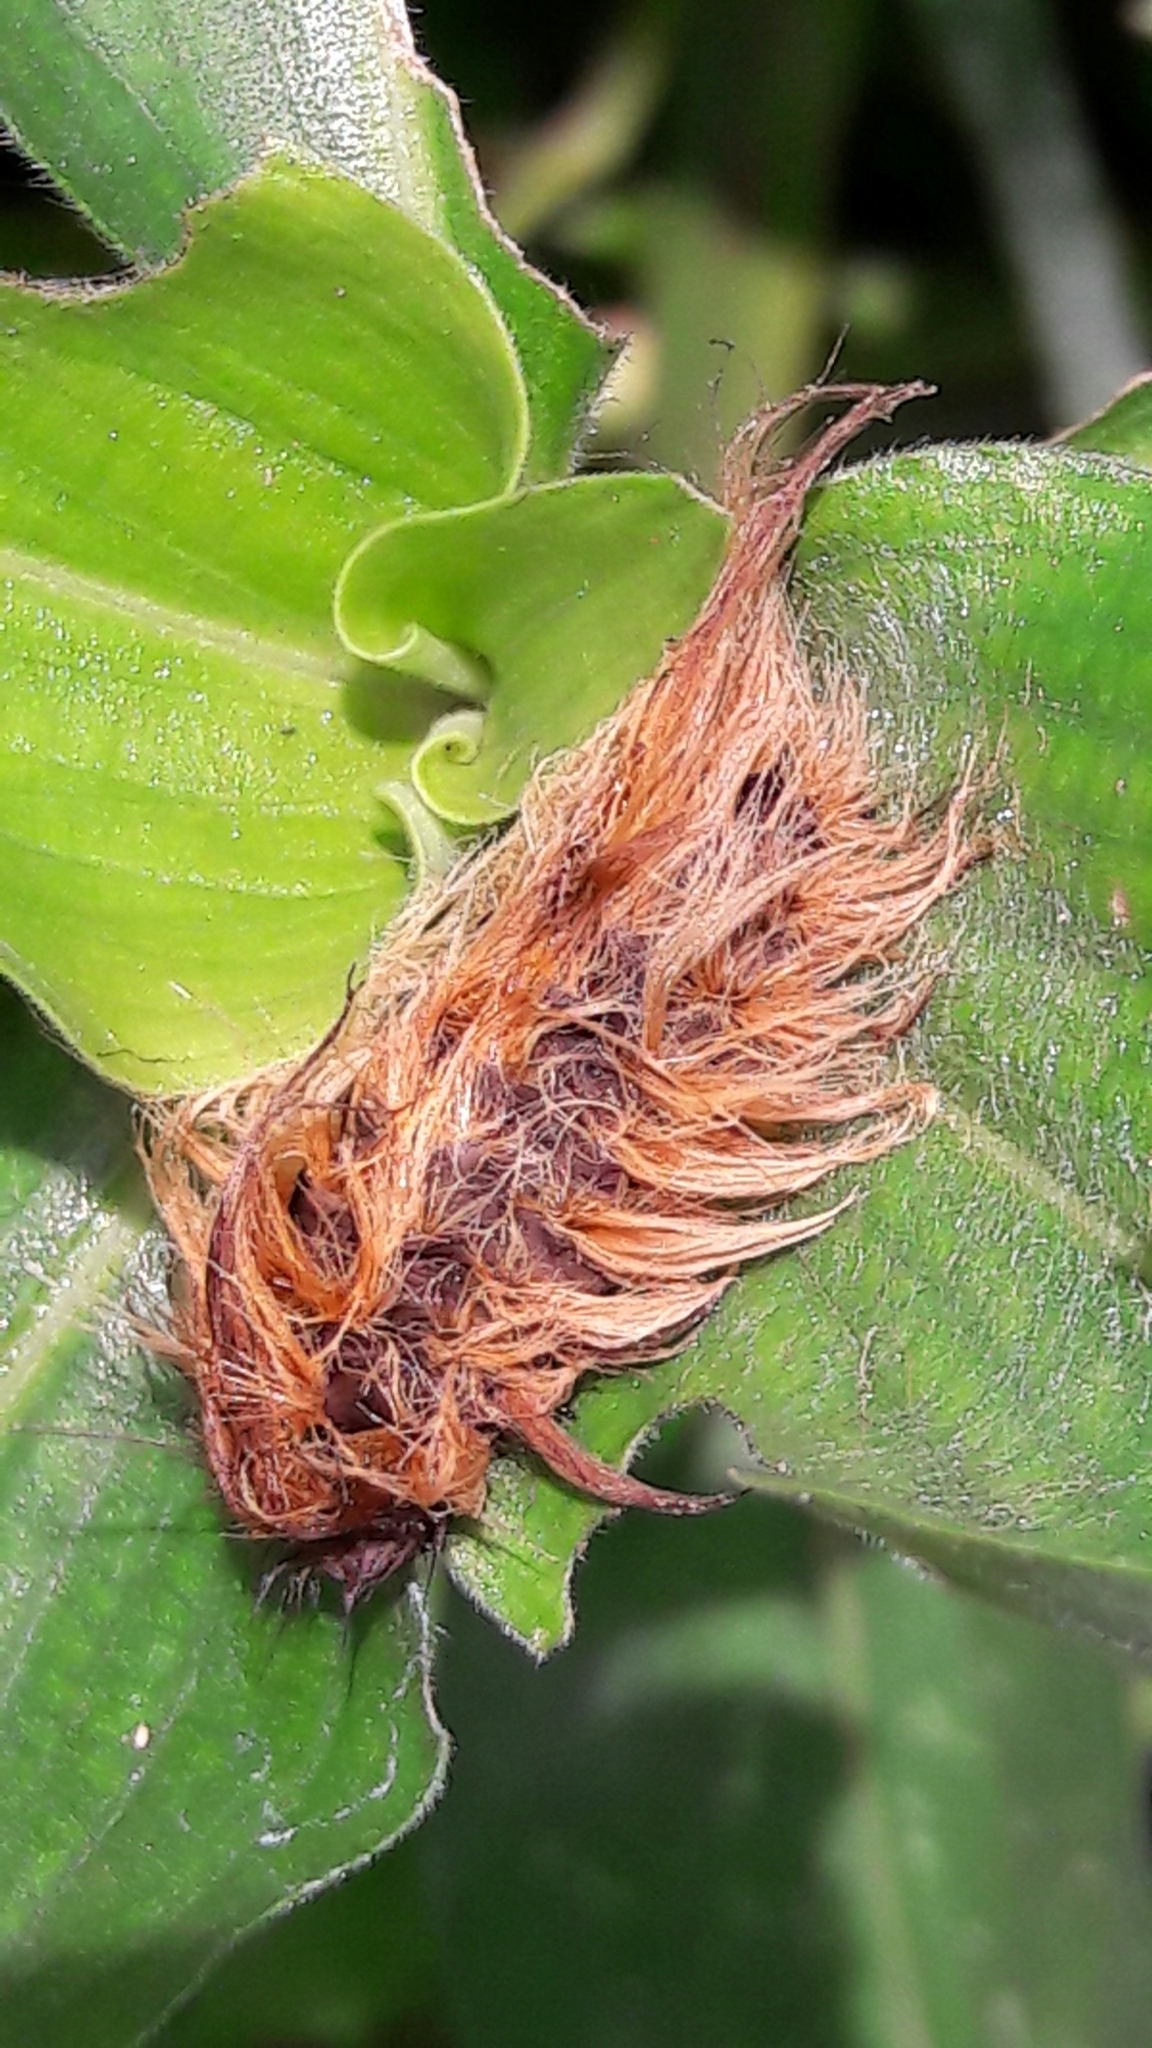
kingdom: Plantae
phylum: Tracheophyta
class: Liliopsida
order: Commelinales
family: Commelinaceae
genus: Commelina
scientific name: Commelina benghalensis
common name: Jio
